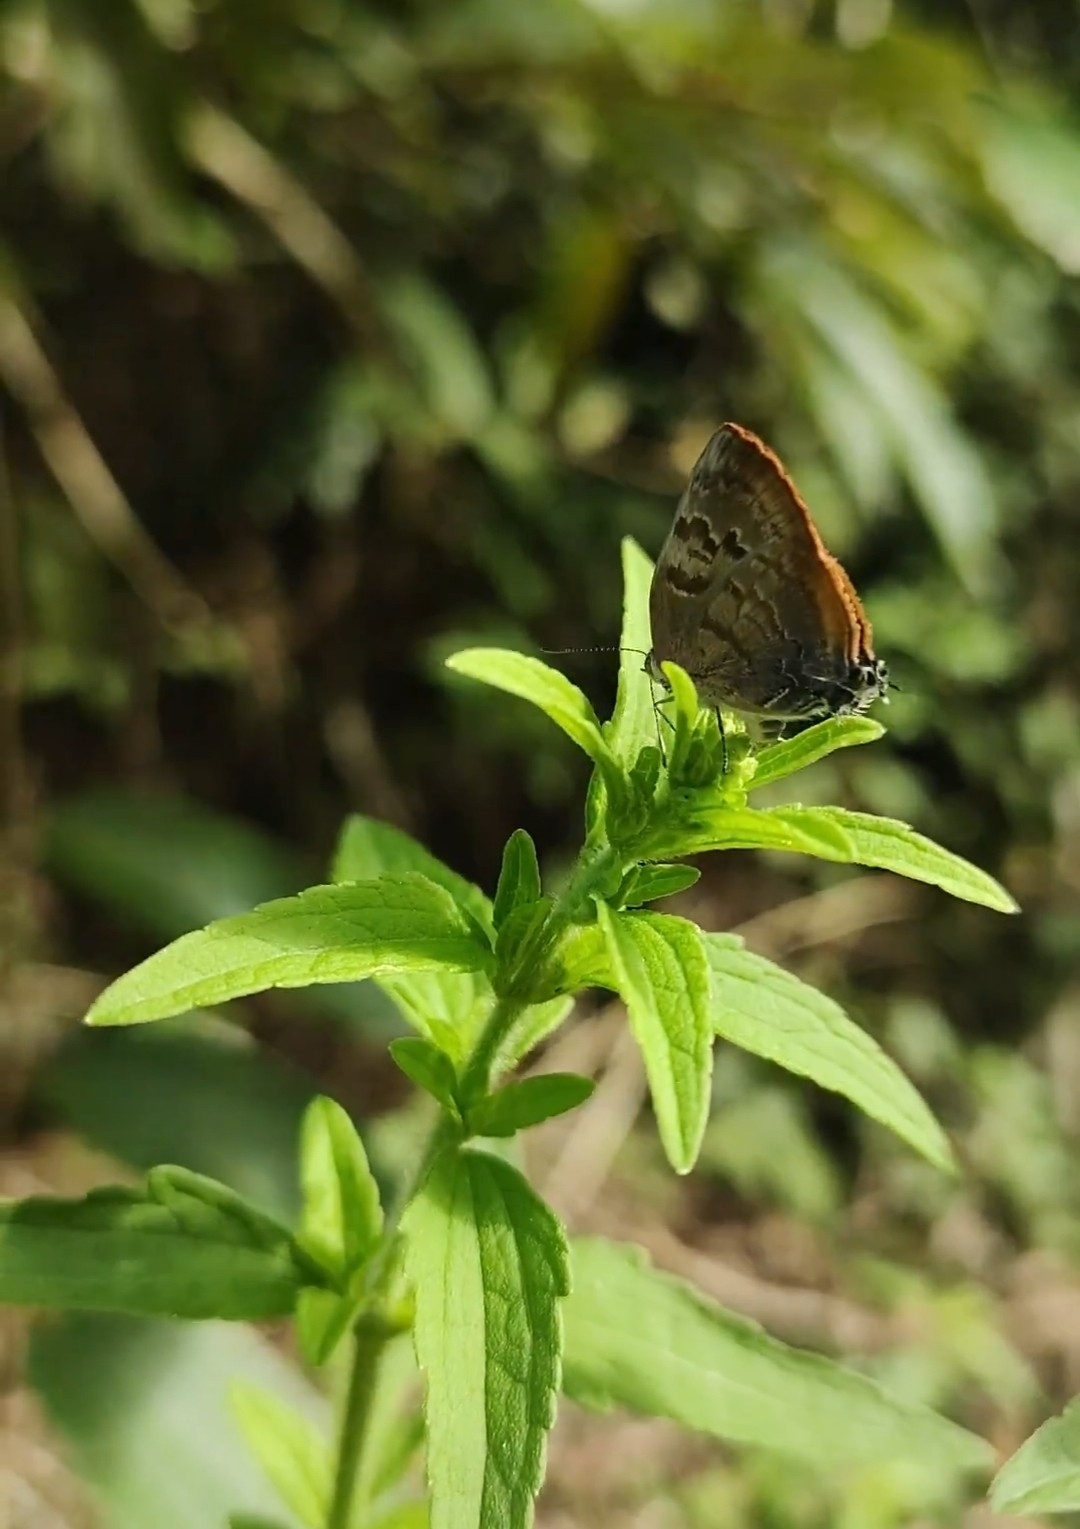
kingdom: Animalia
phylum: Arthropoda
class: Insecta
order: Lepidoptera
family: Lycaenidae
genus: Rekoa
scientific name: Rekoa palegon
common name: Gold-bordered hairstreak
